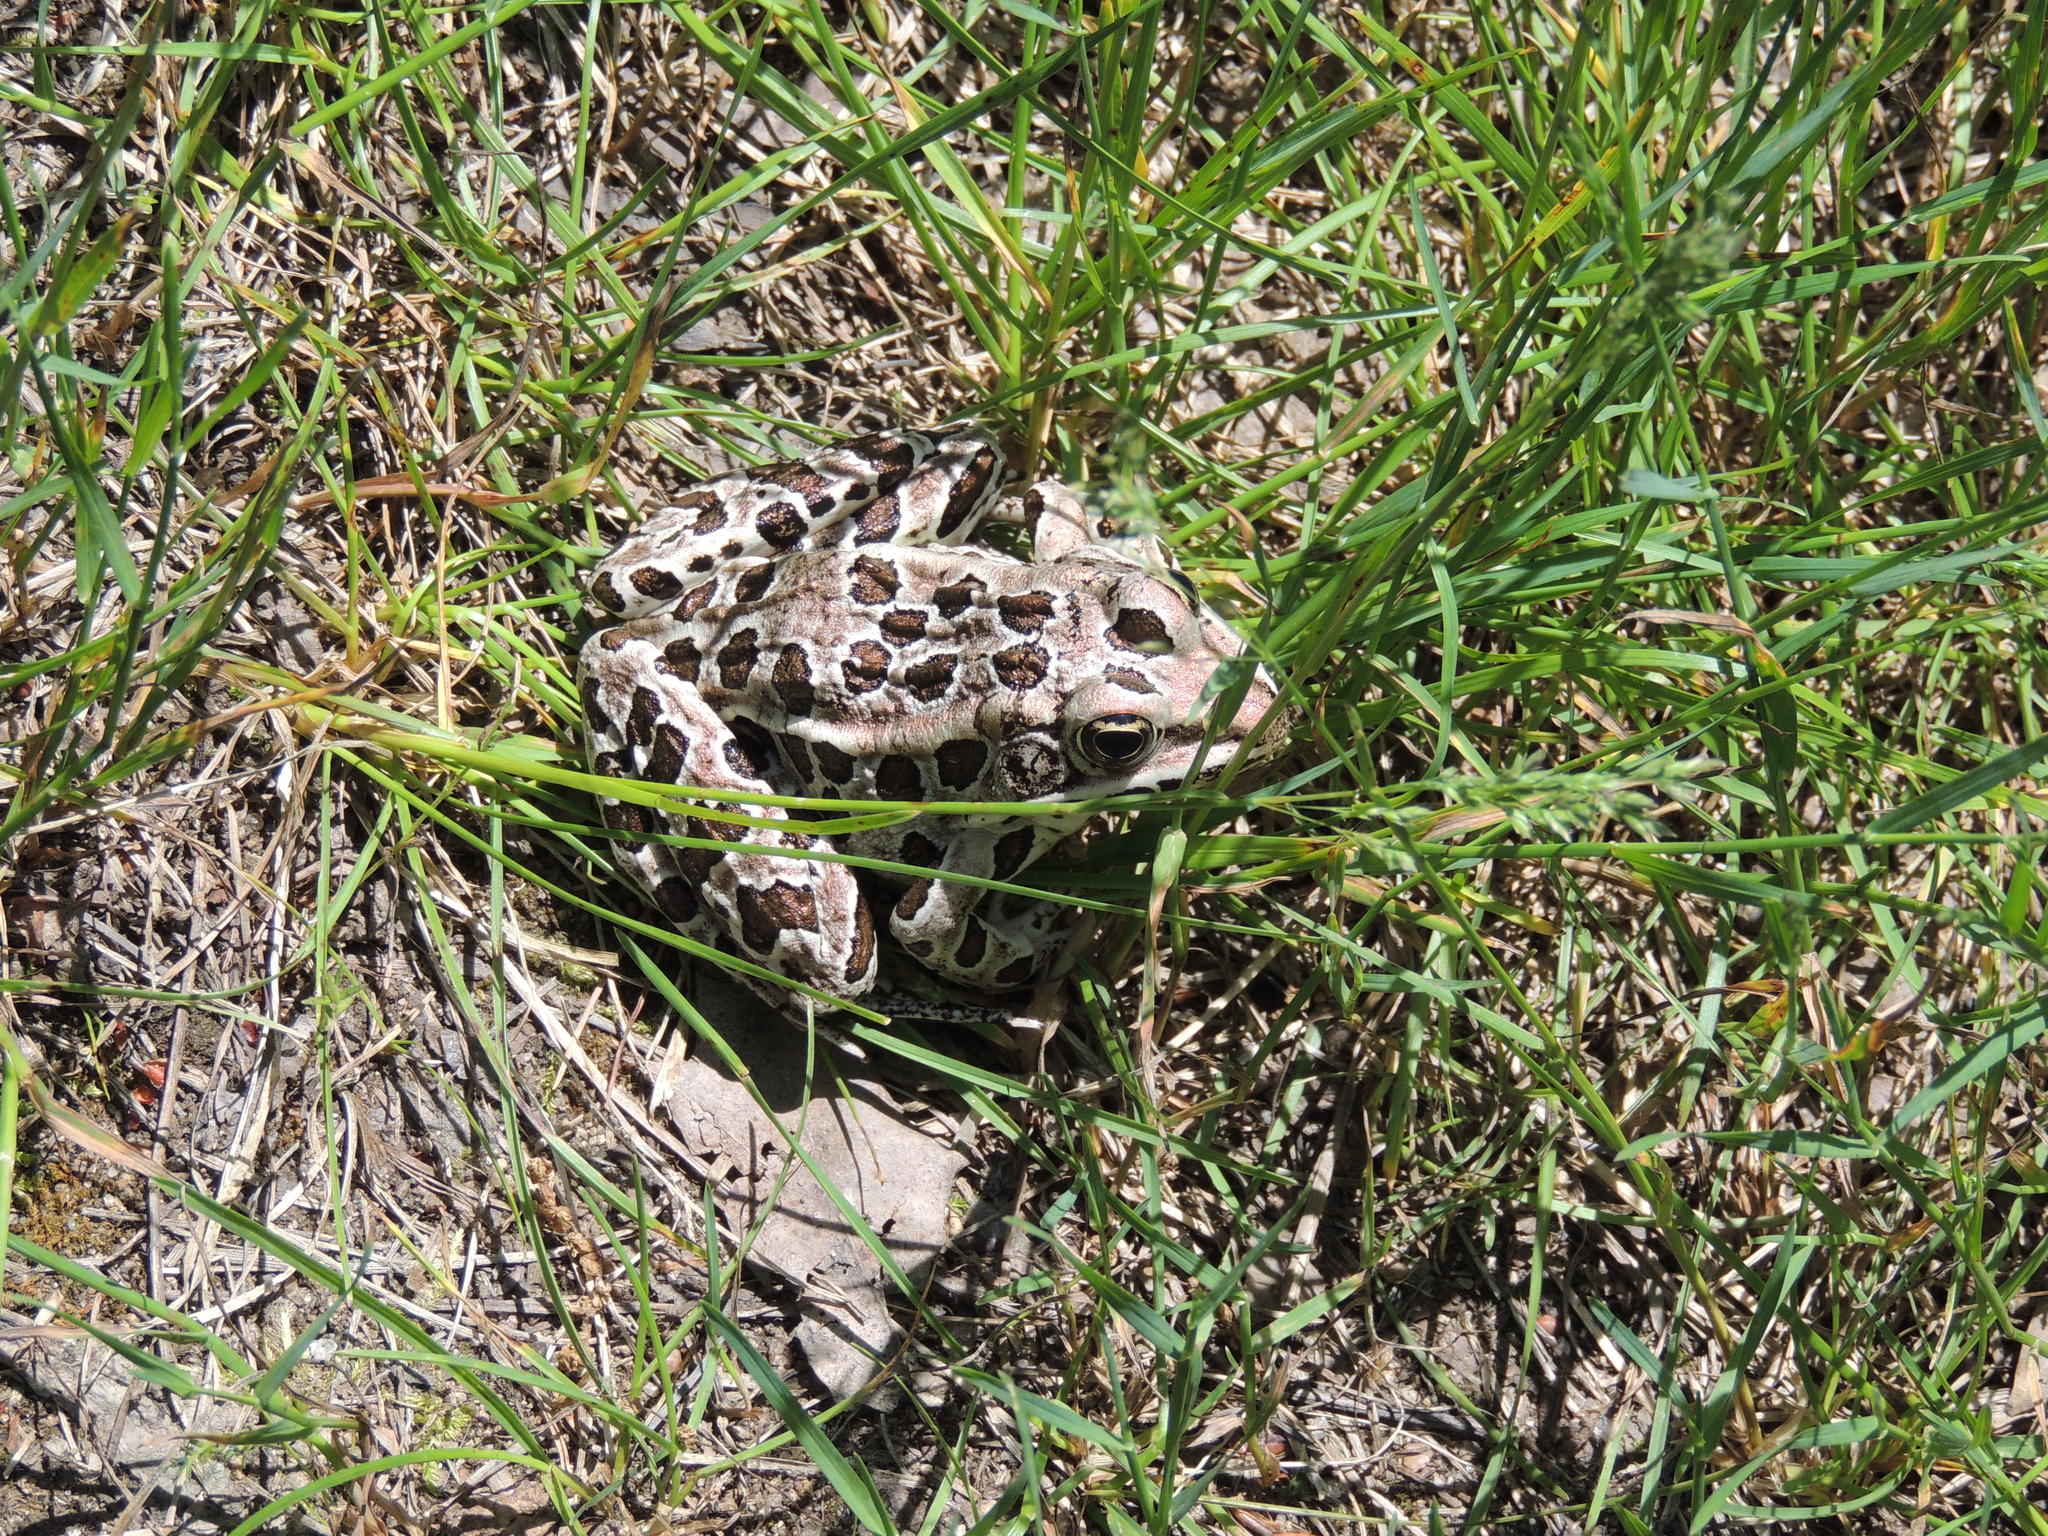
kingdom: Animalia
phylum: Chordata
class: Amphibia
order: Anura
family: Ranidae
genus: Lithobates
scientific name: Lithobates pipiens
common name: Northern leopard frog
